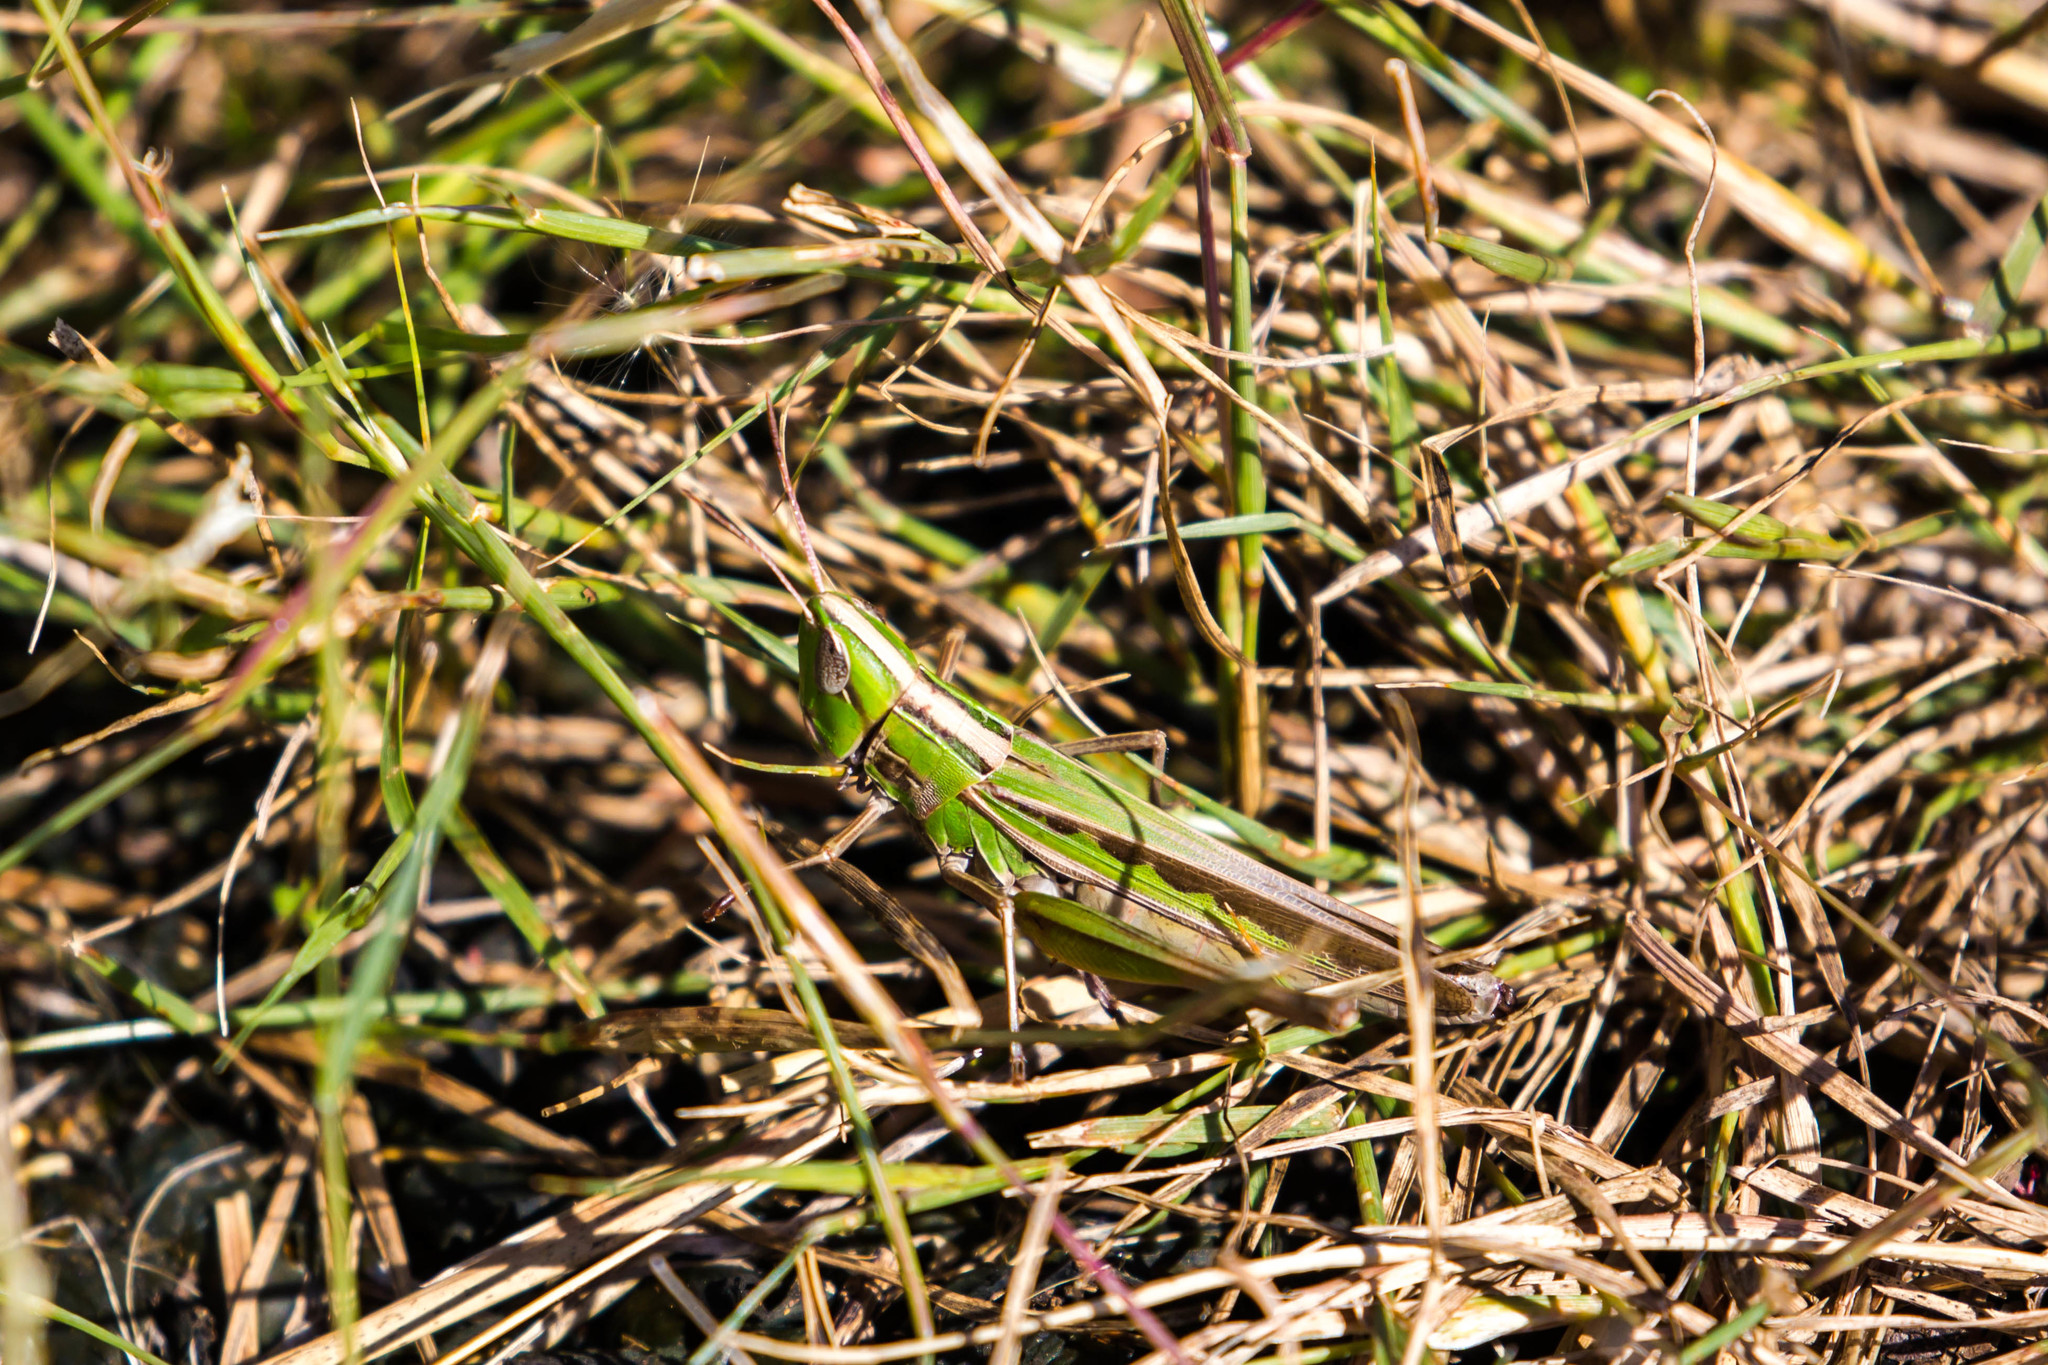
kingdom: Animalia
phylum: Arthropoda
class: Insecta
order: Orthoptera
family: Acrididae
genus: Syrbula
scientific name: Syrbula admirabilis
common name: Handsome grasshopper
